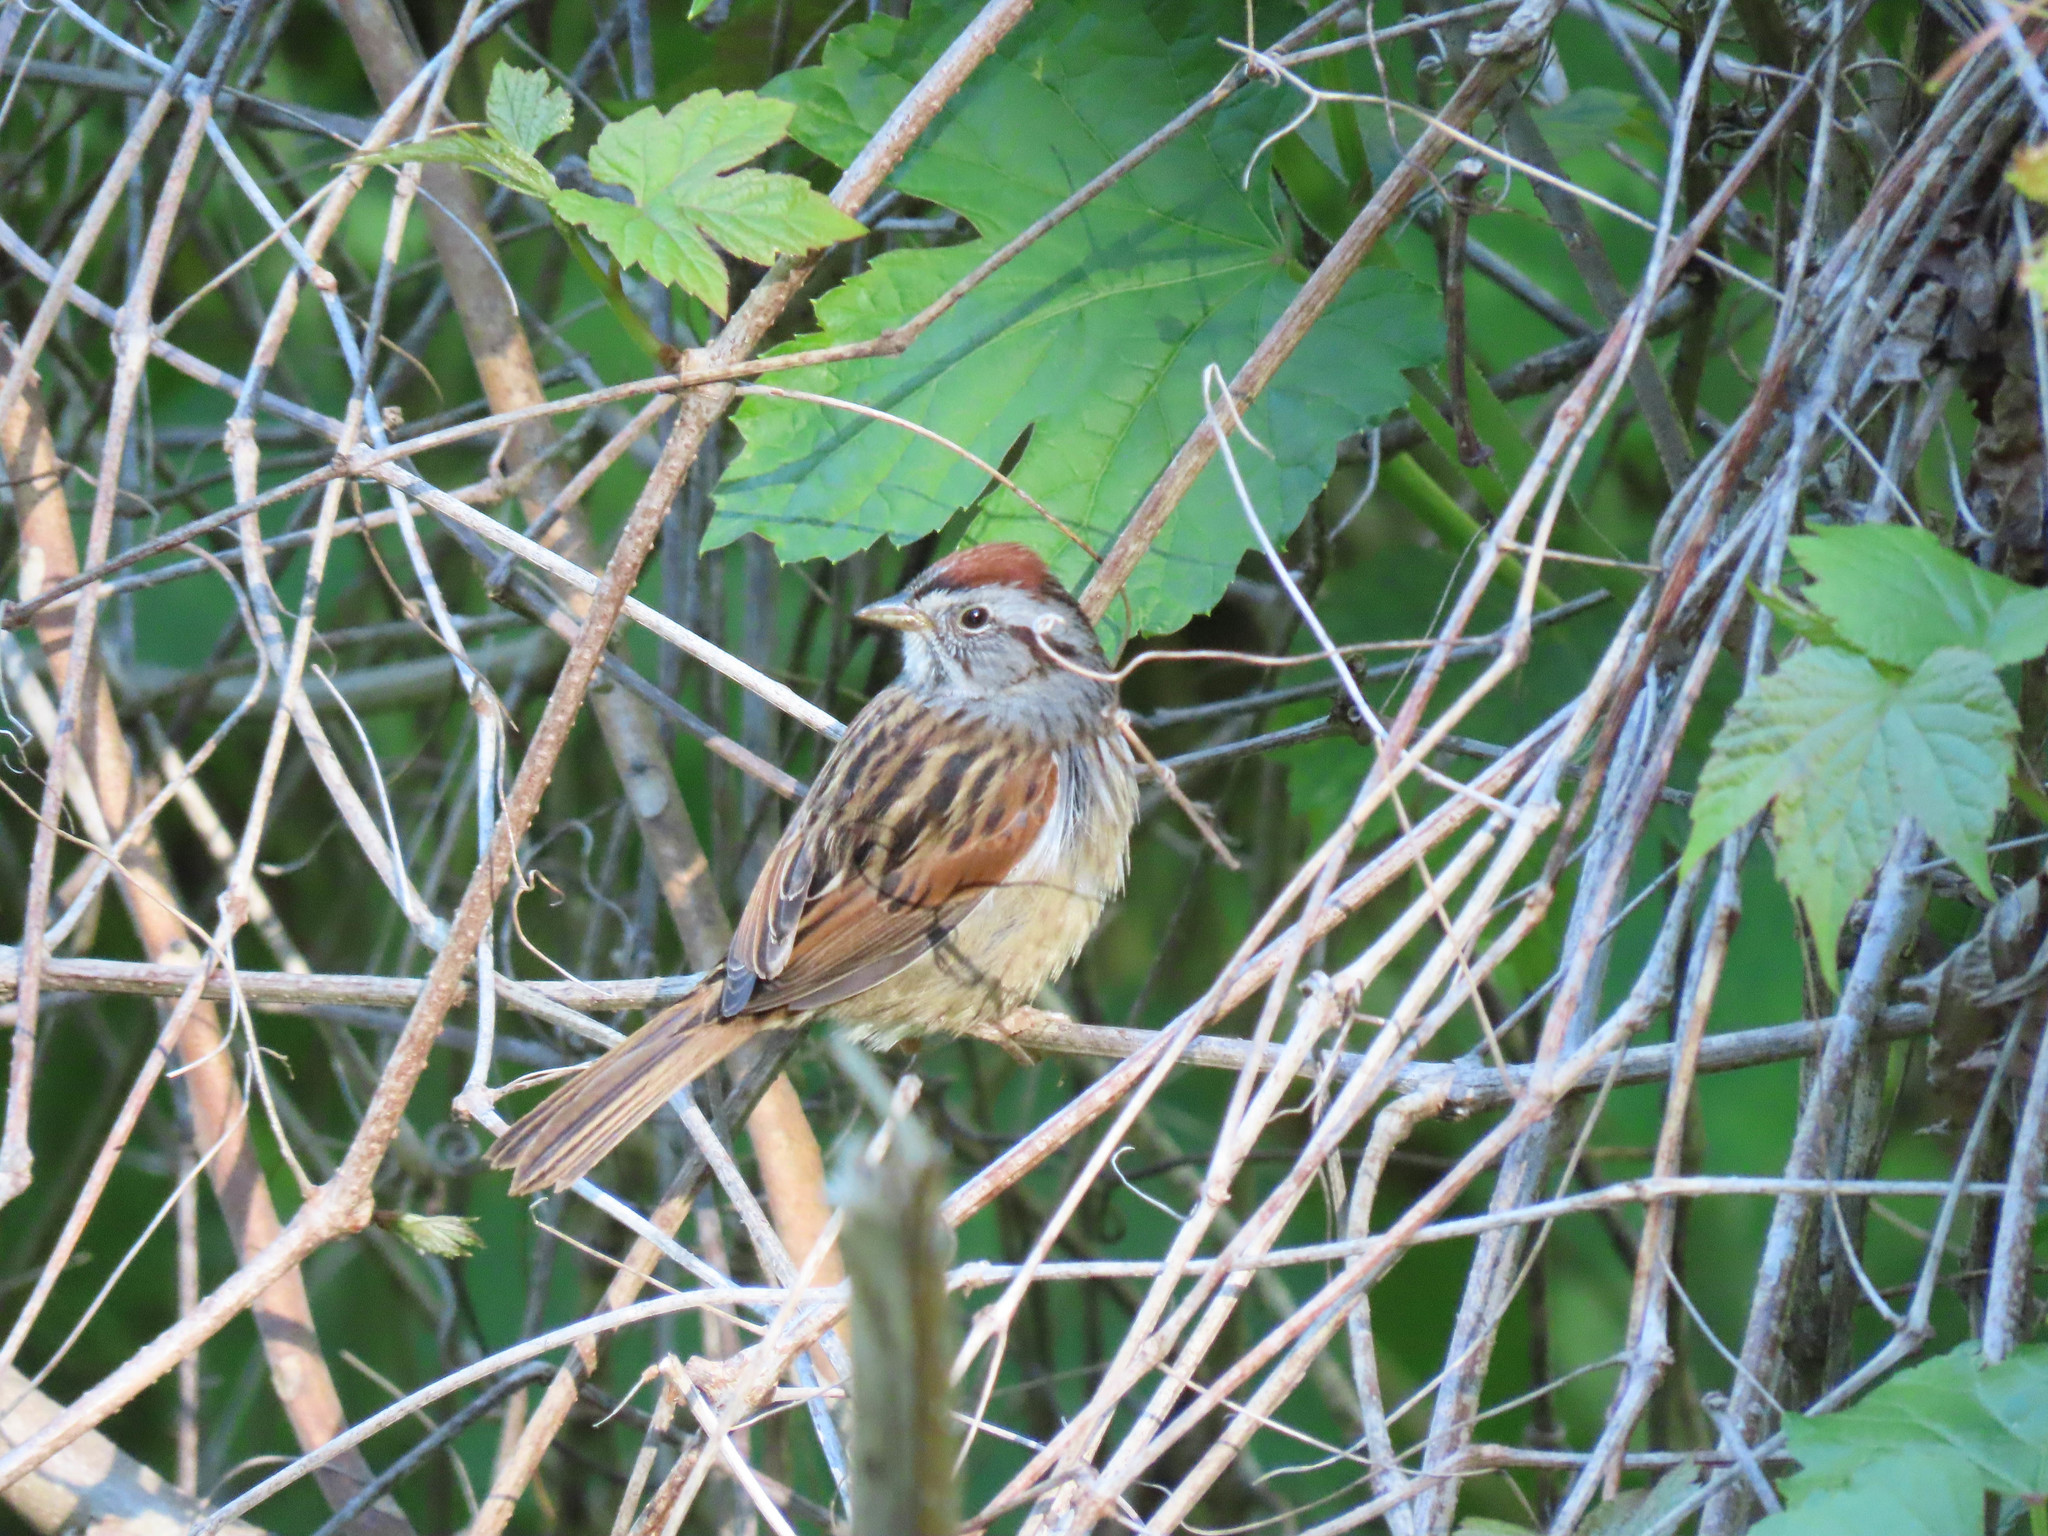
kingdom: Animalia
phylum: Chordata
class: Aves
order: Passeriformes
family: Passerellidae
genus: Melospiza
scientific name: Melospiza georgiana
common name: Swamp sparrow
